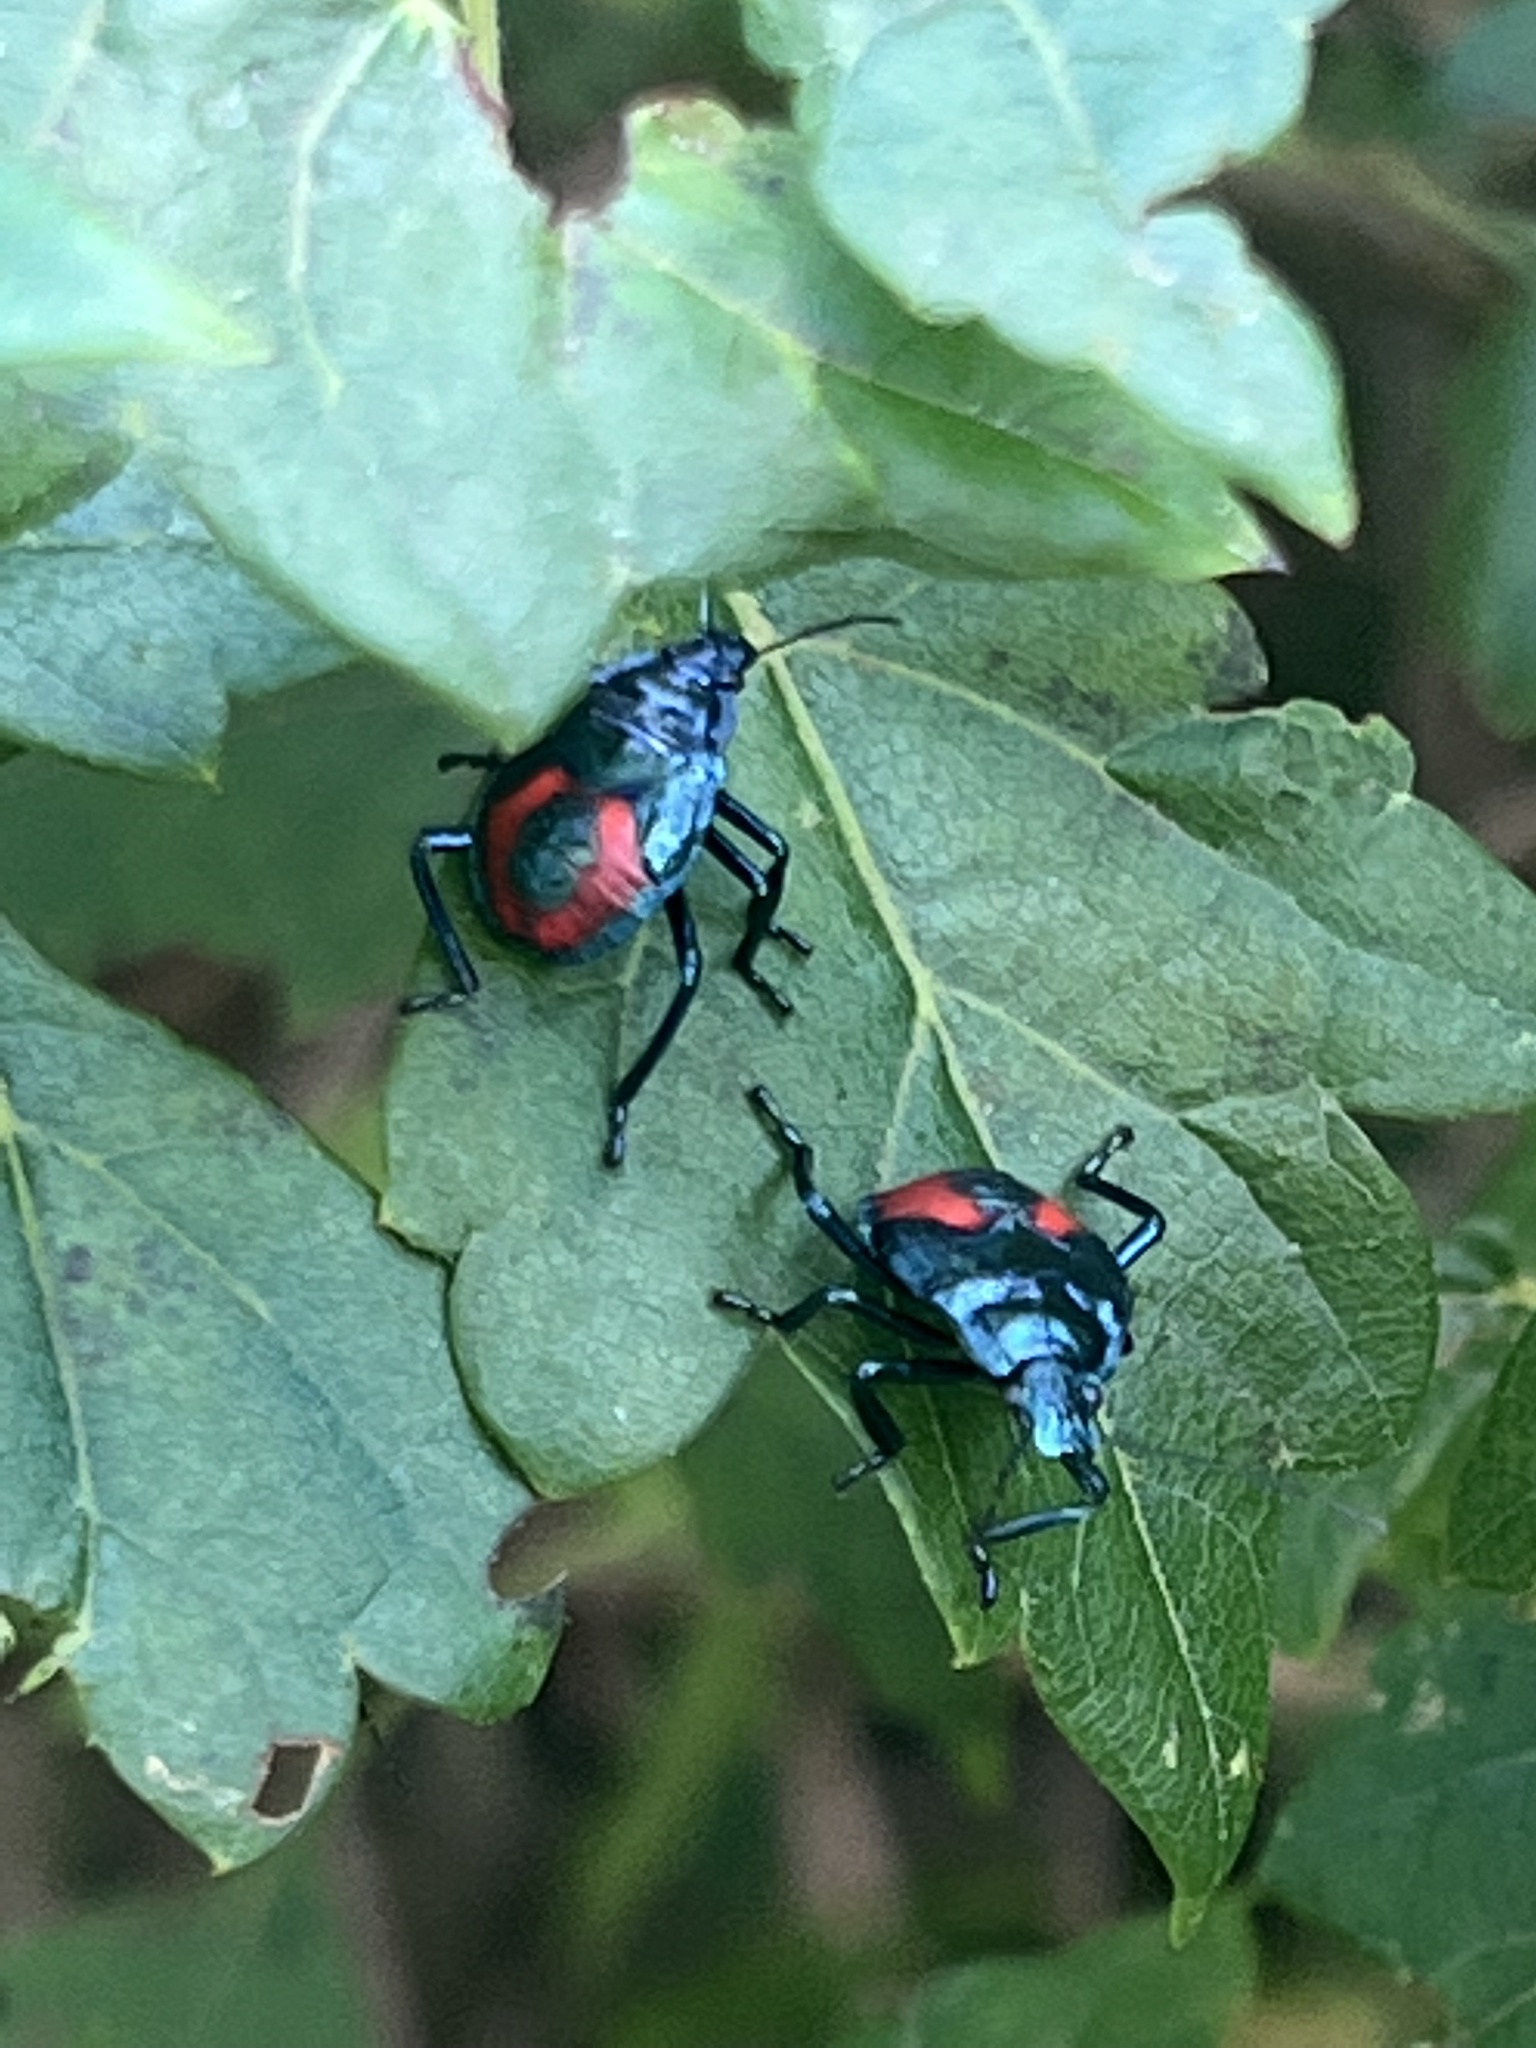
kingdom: Animalia
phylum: Arthropoda
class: Insecta
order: Hemiptera
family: Pentatomidae
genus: Euthyrhynchus
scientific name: Euthyrhynchus floridanus
